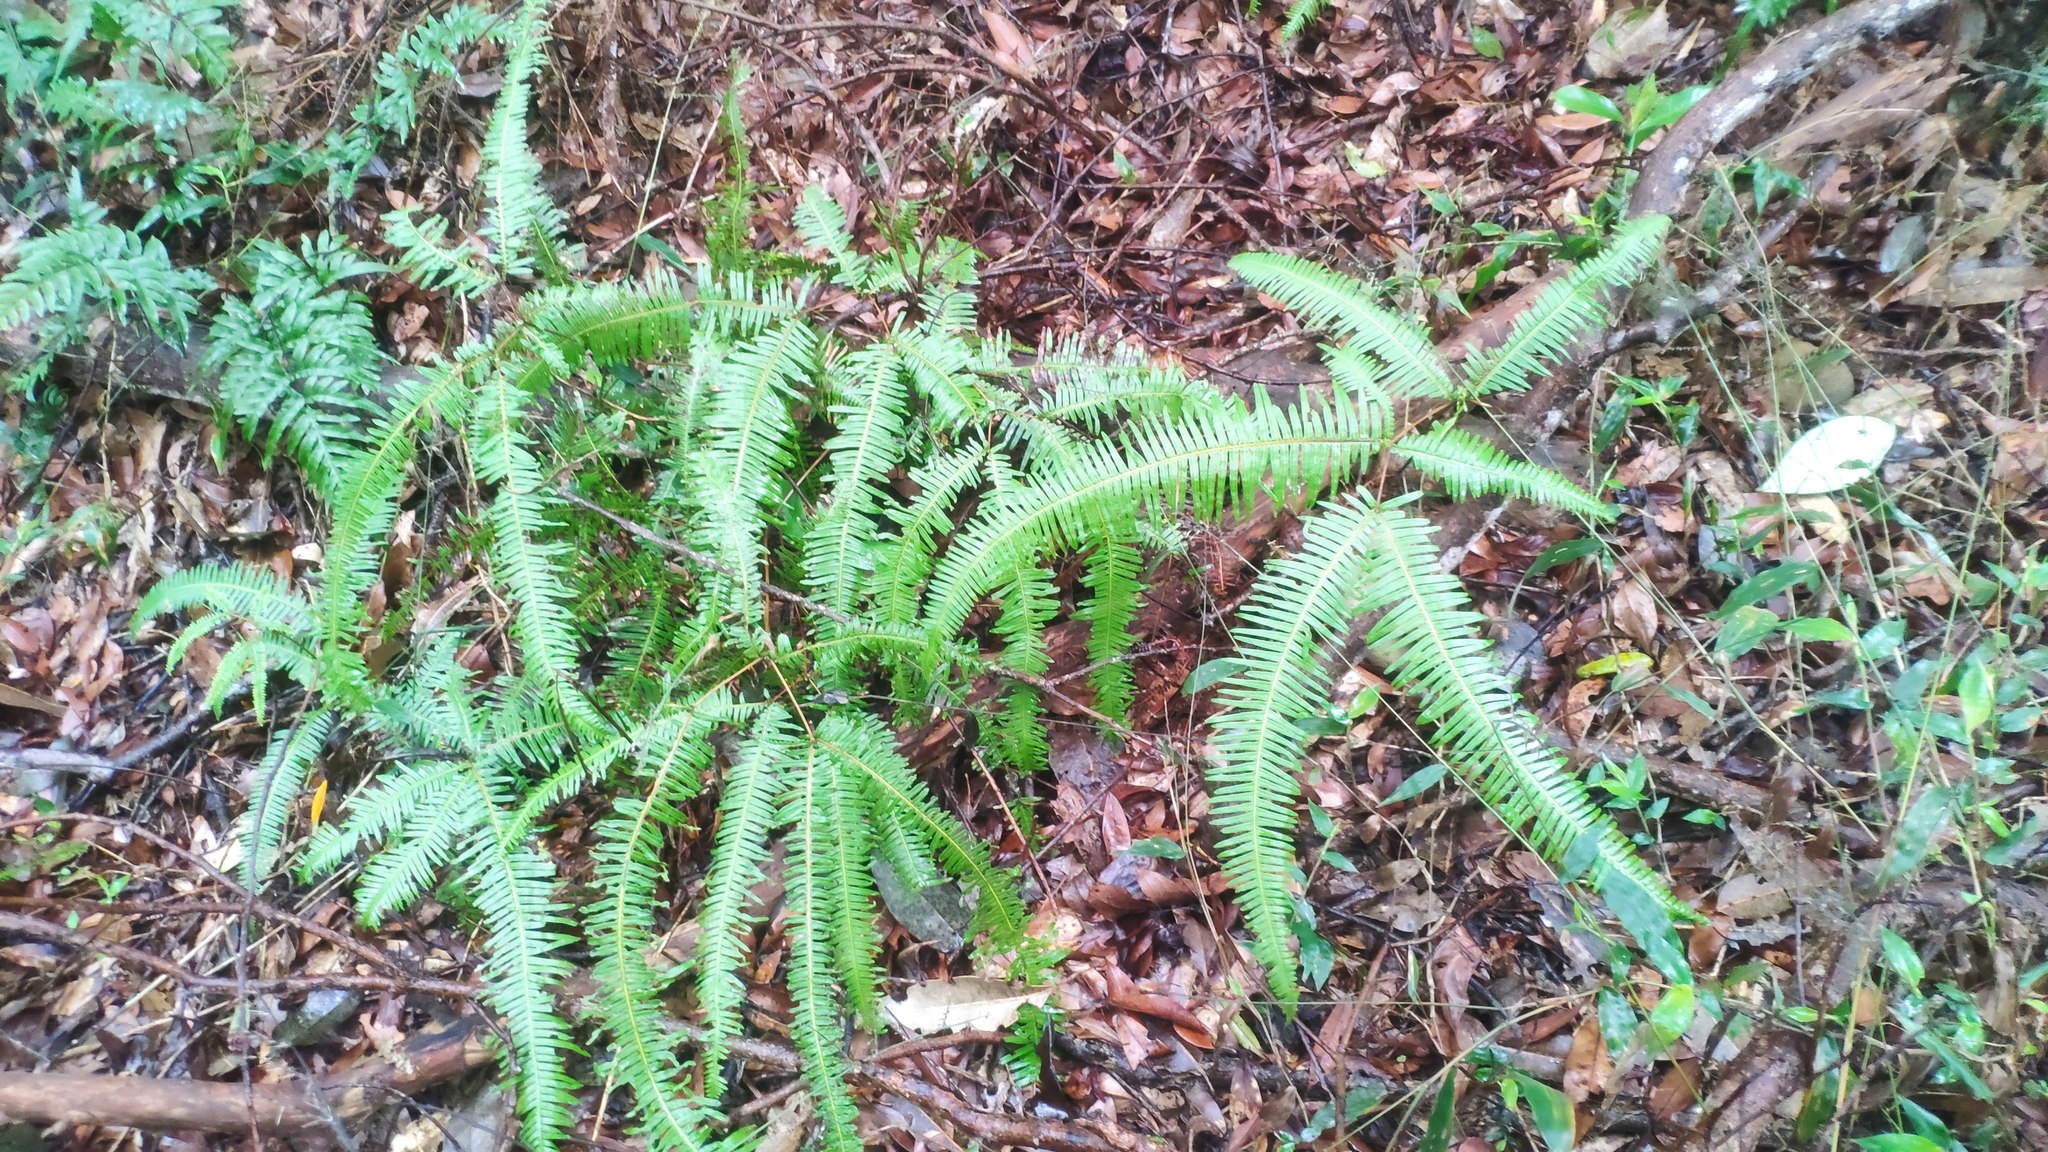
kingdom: Plantae
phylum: Tracheophyta
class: Polypodiopsida
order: Gleicheniales
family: Gleicheniaceae
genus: Dicranopteris
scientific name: Dicranopteris linearis
